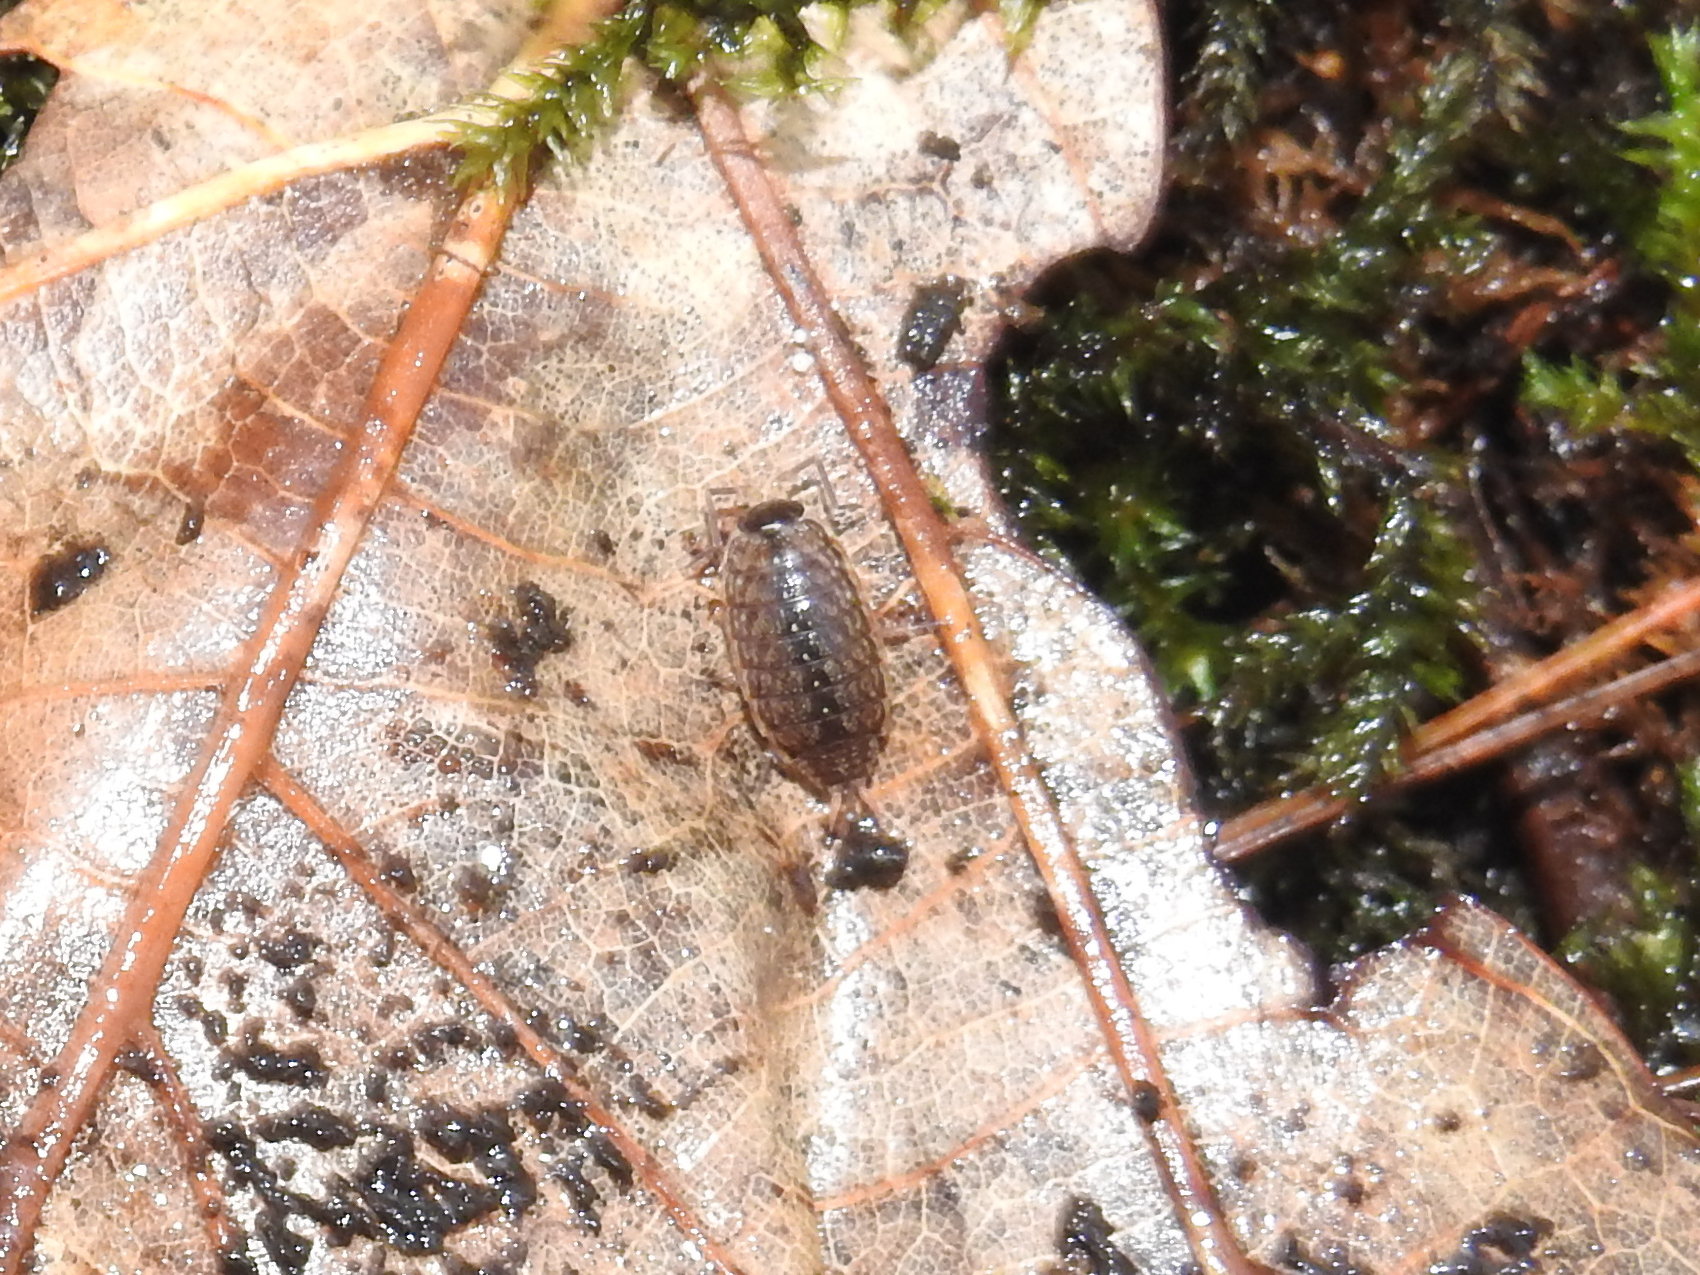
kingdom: Animalia
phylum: Arthropoda
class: Malacostraca
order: Isopoda
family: Philosciidae
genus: Philoscia
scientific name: Philoscia muscorum
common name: Common striped woodlouse
